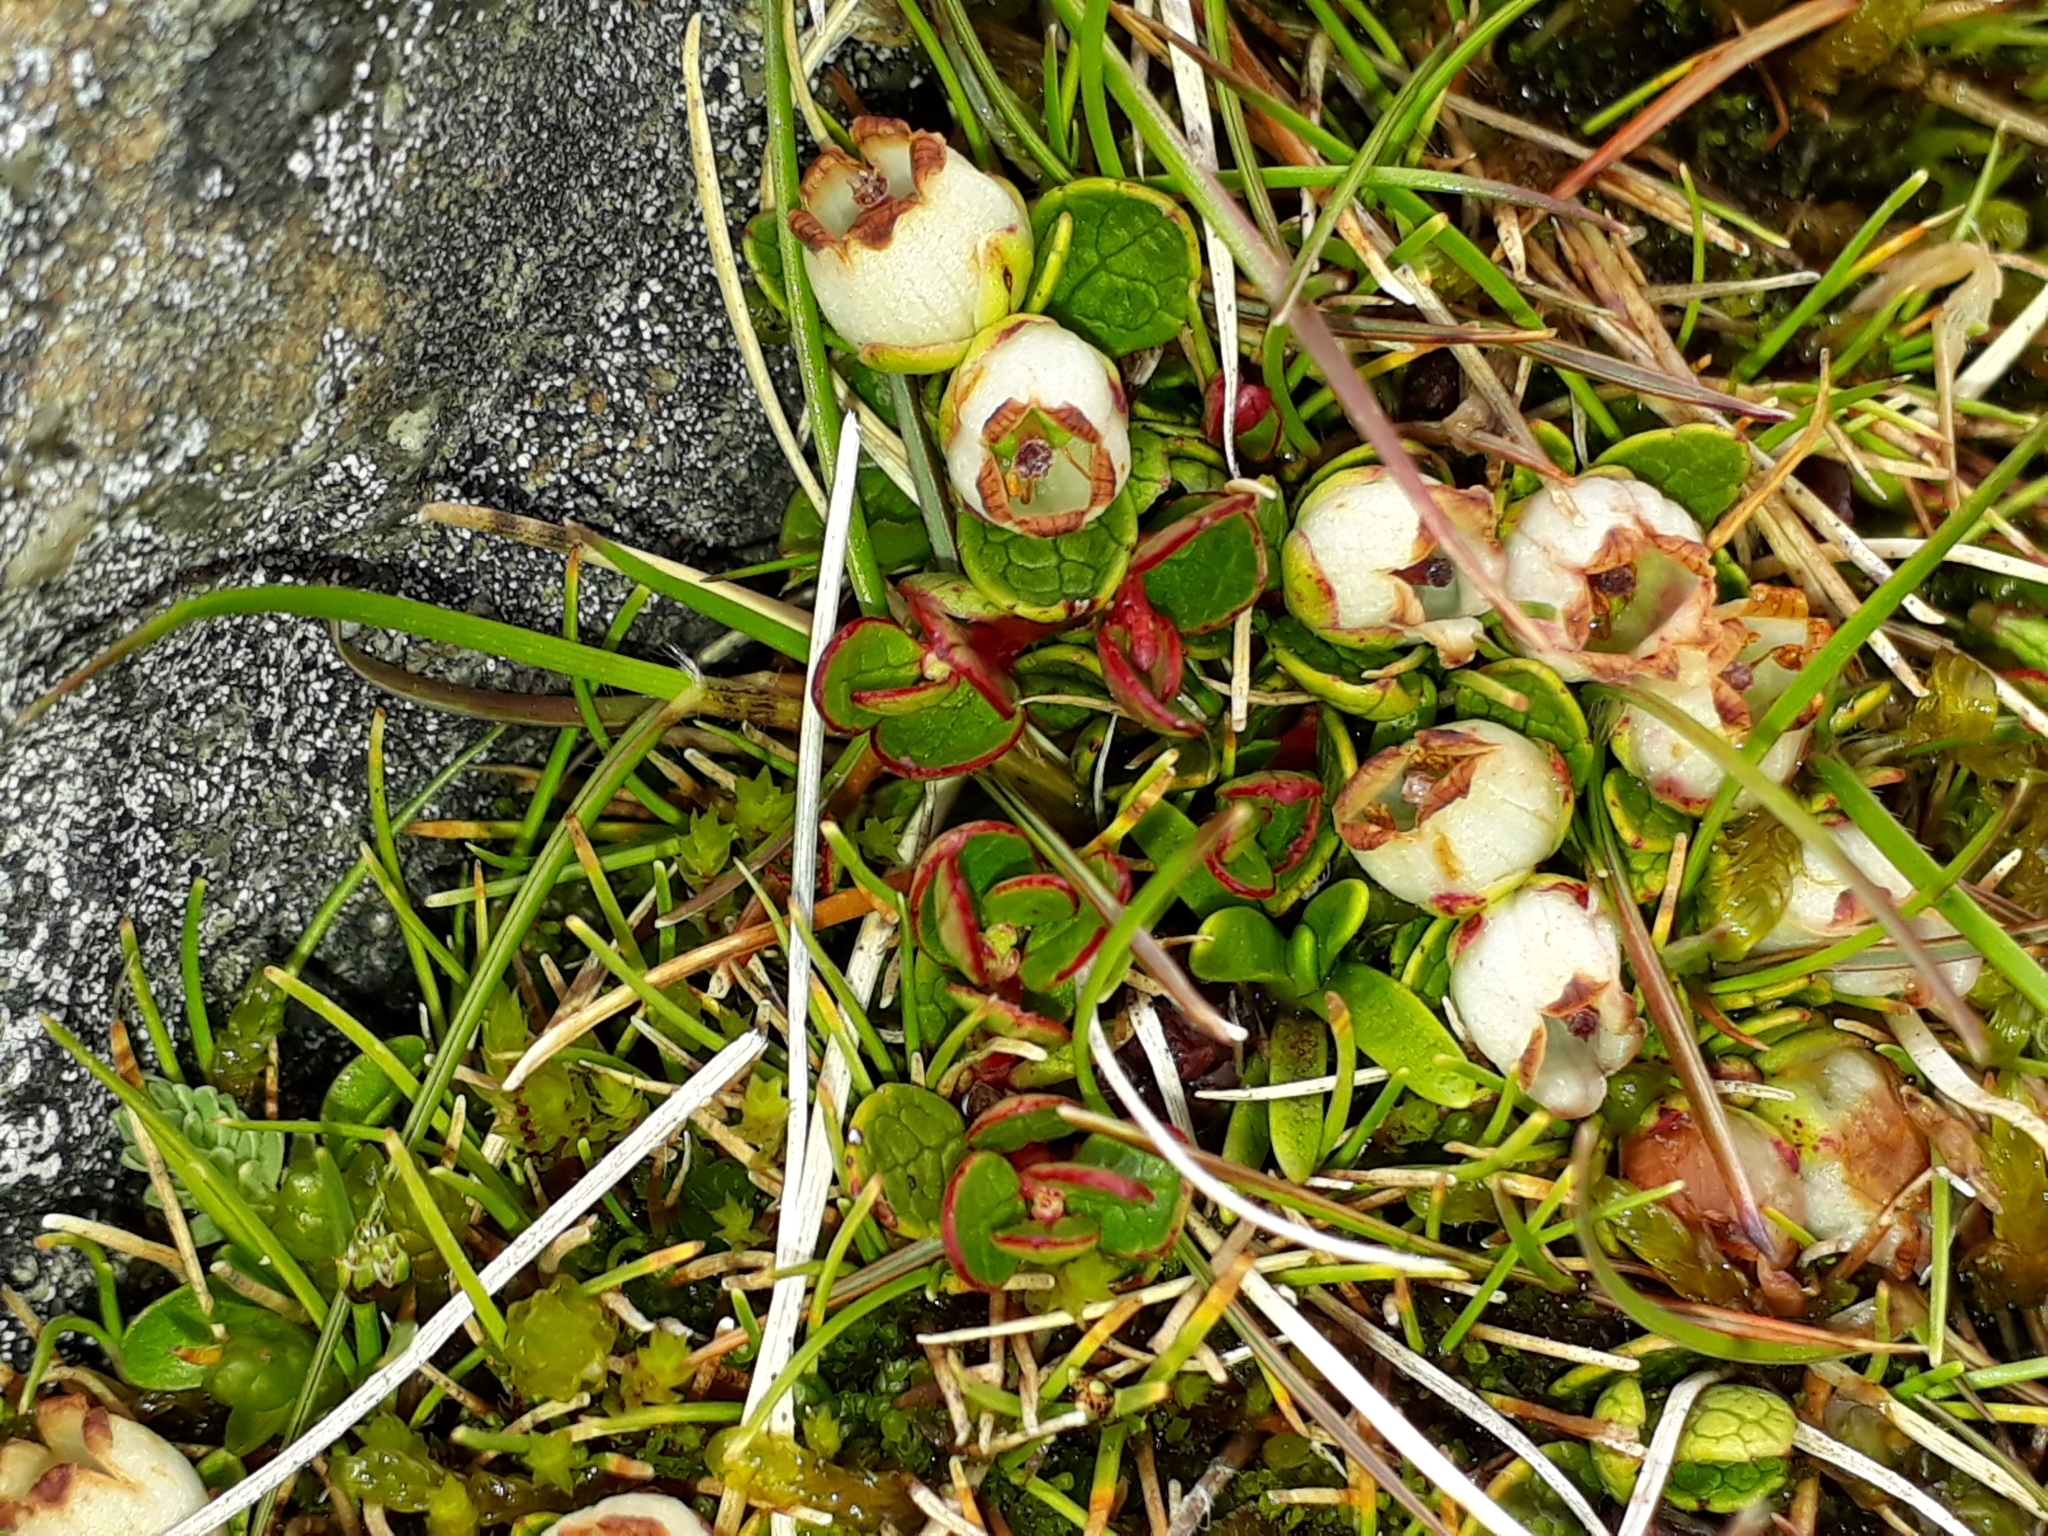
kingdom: Plantae
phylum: Tracheophyta
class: Magnoliopsida
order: Ericales
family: Ericaceae
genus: Gaultheria
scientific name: Gaultheria nubicola
